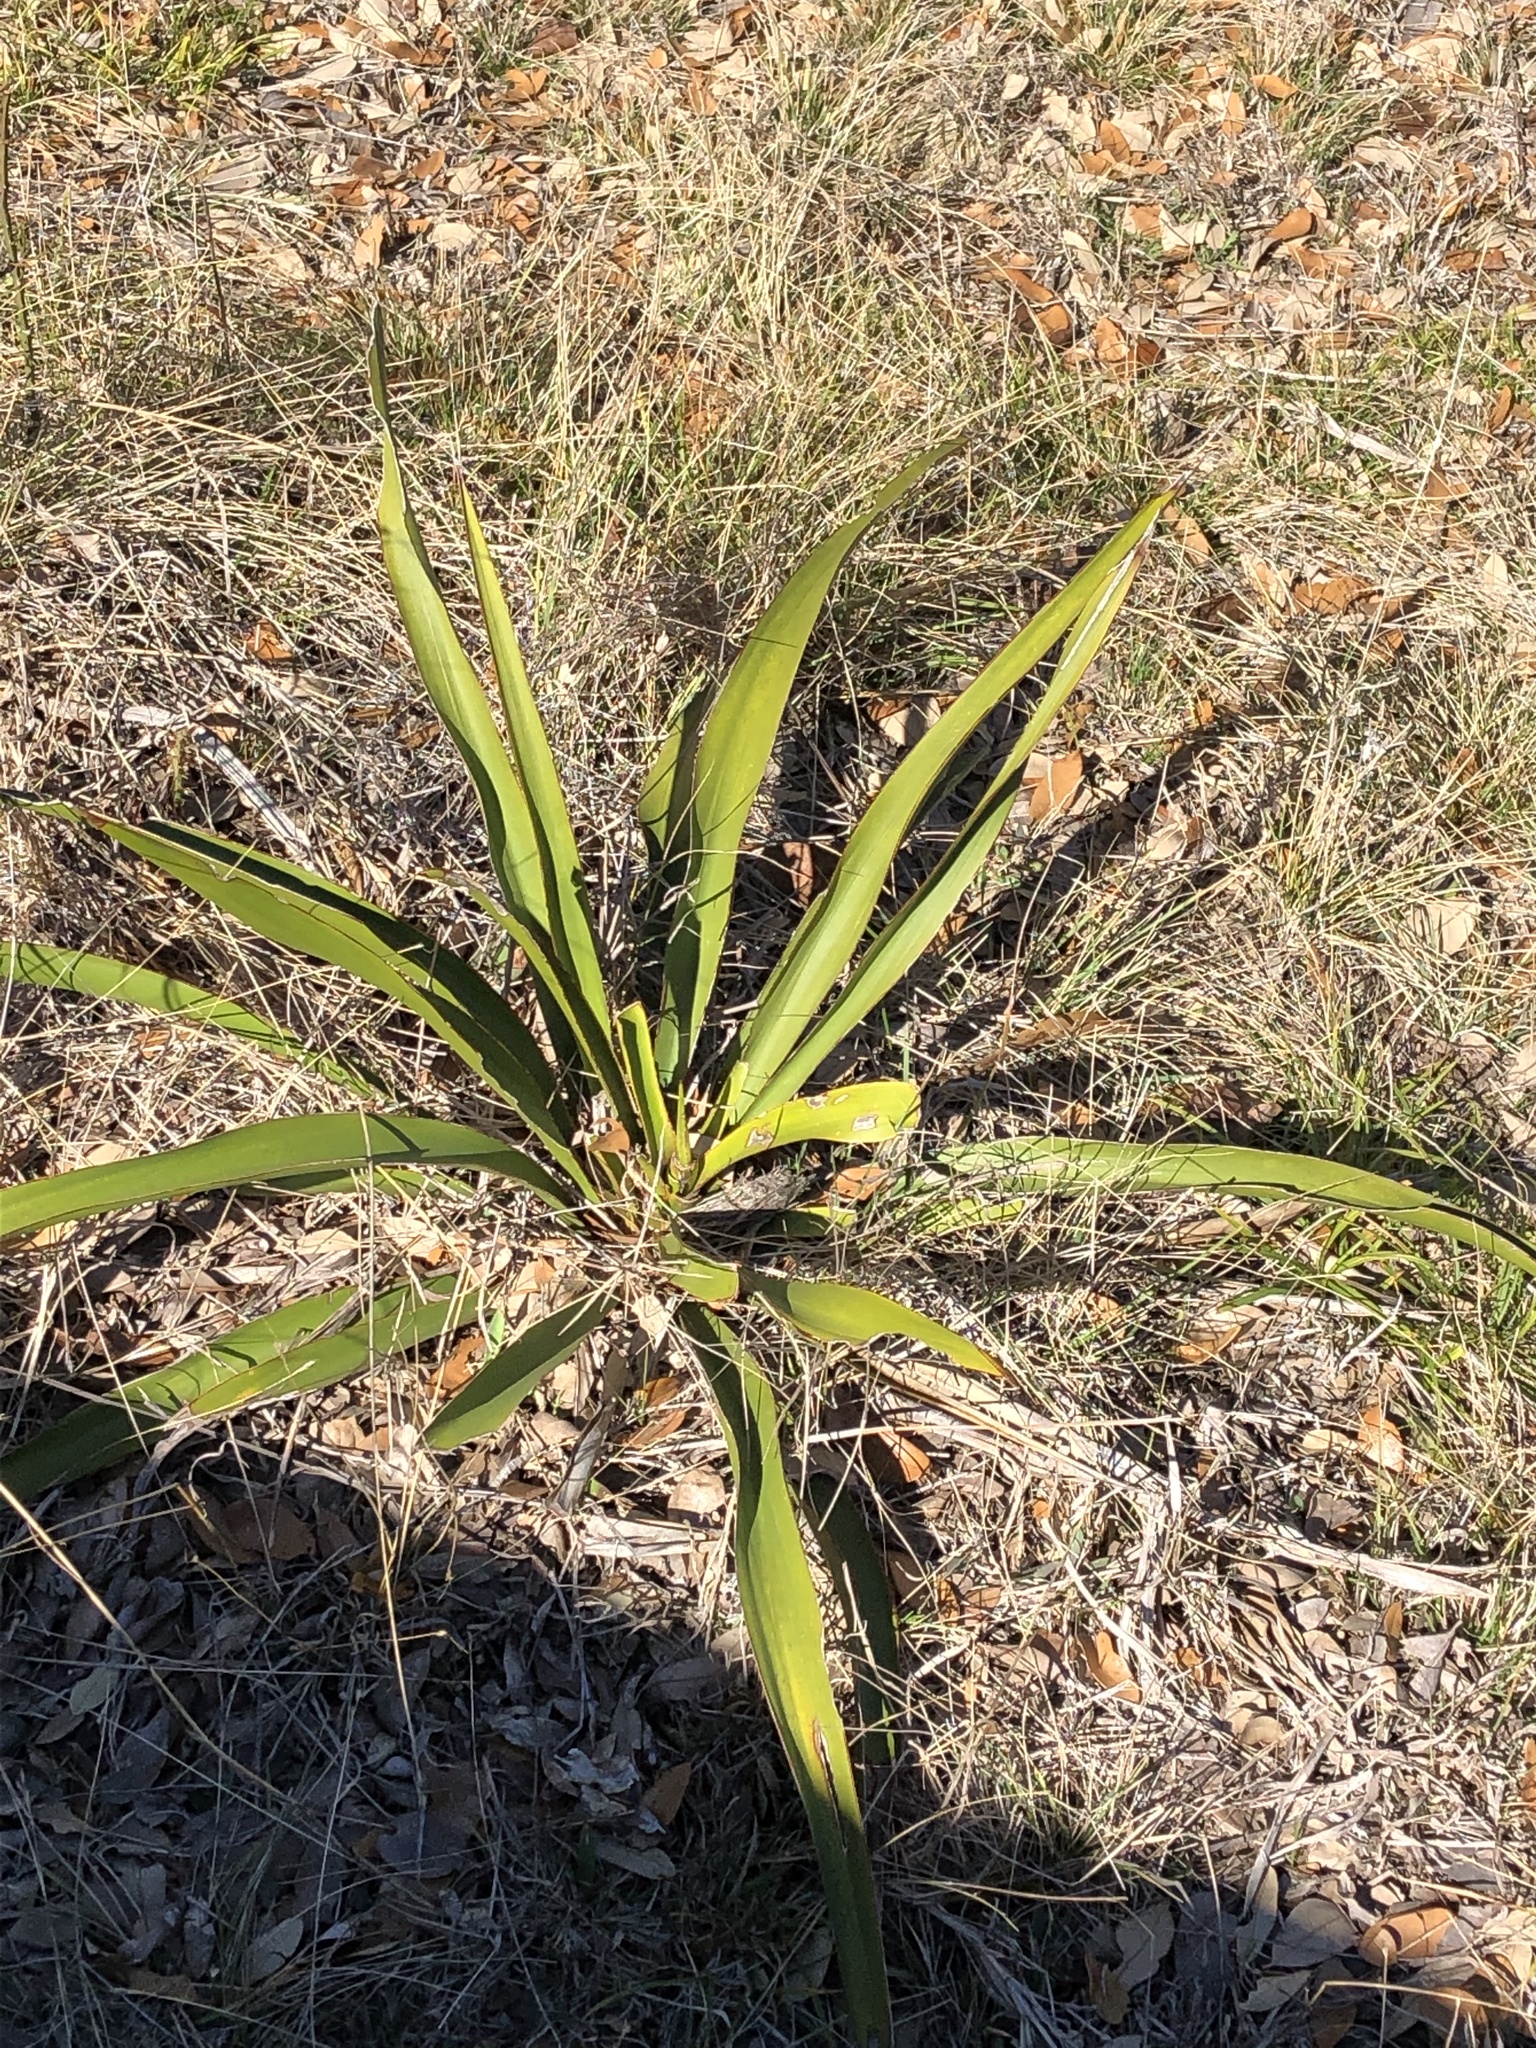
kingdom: Plantae
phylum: Tracheophyta
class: Liliopsida
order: Asparagales
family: Asparagaceae
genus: Yucca
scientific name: Yucca rupicola
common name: Twisted-leaf spanish-dagger
